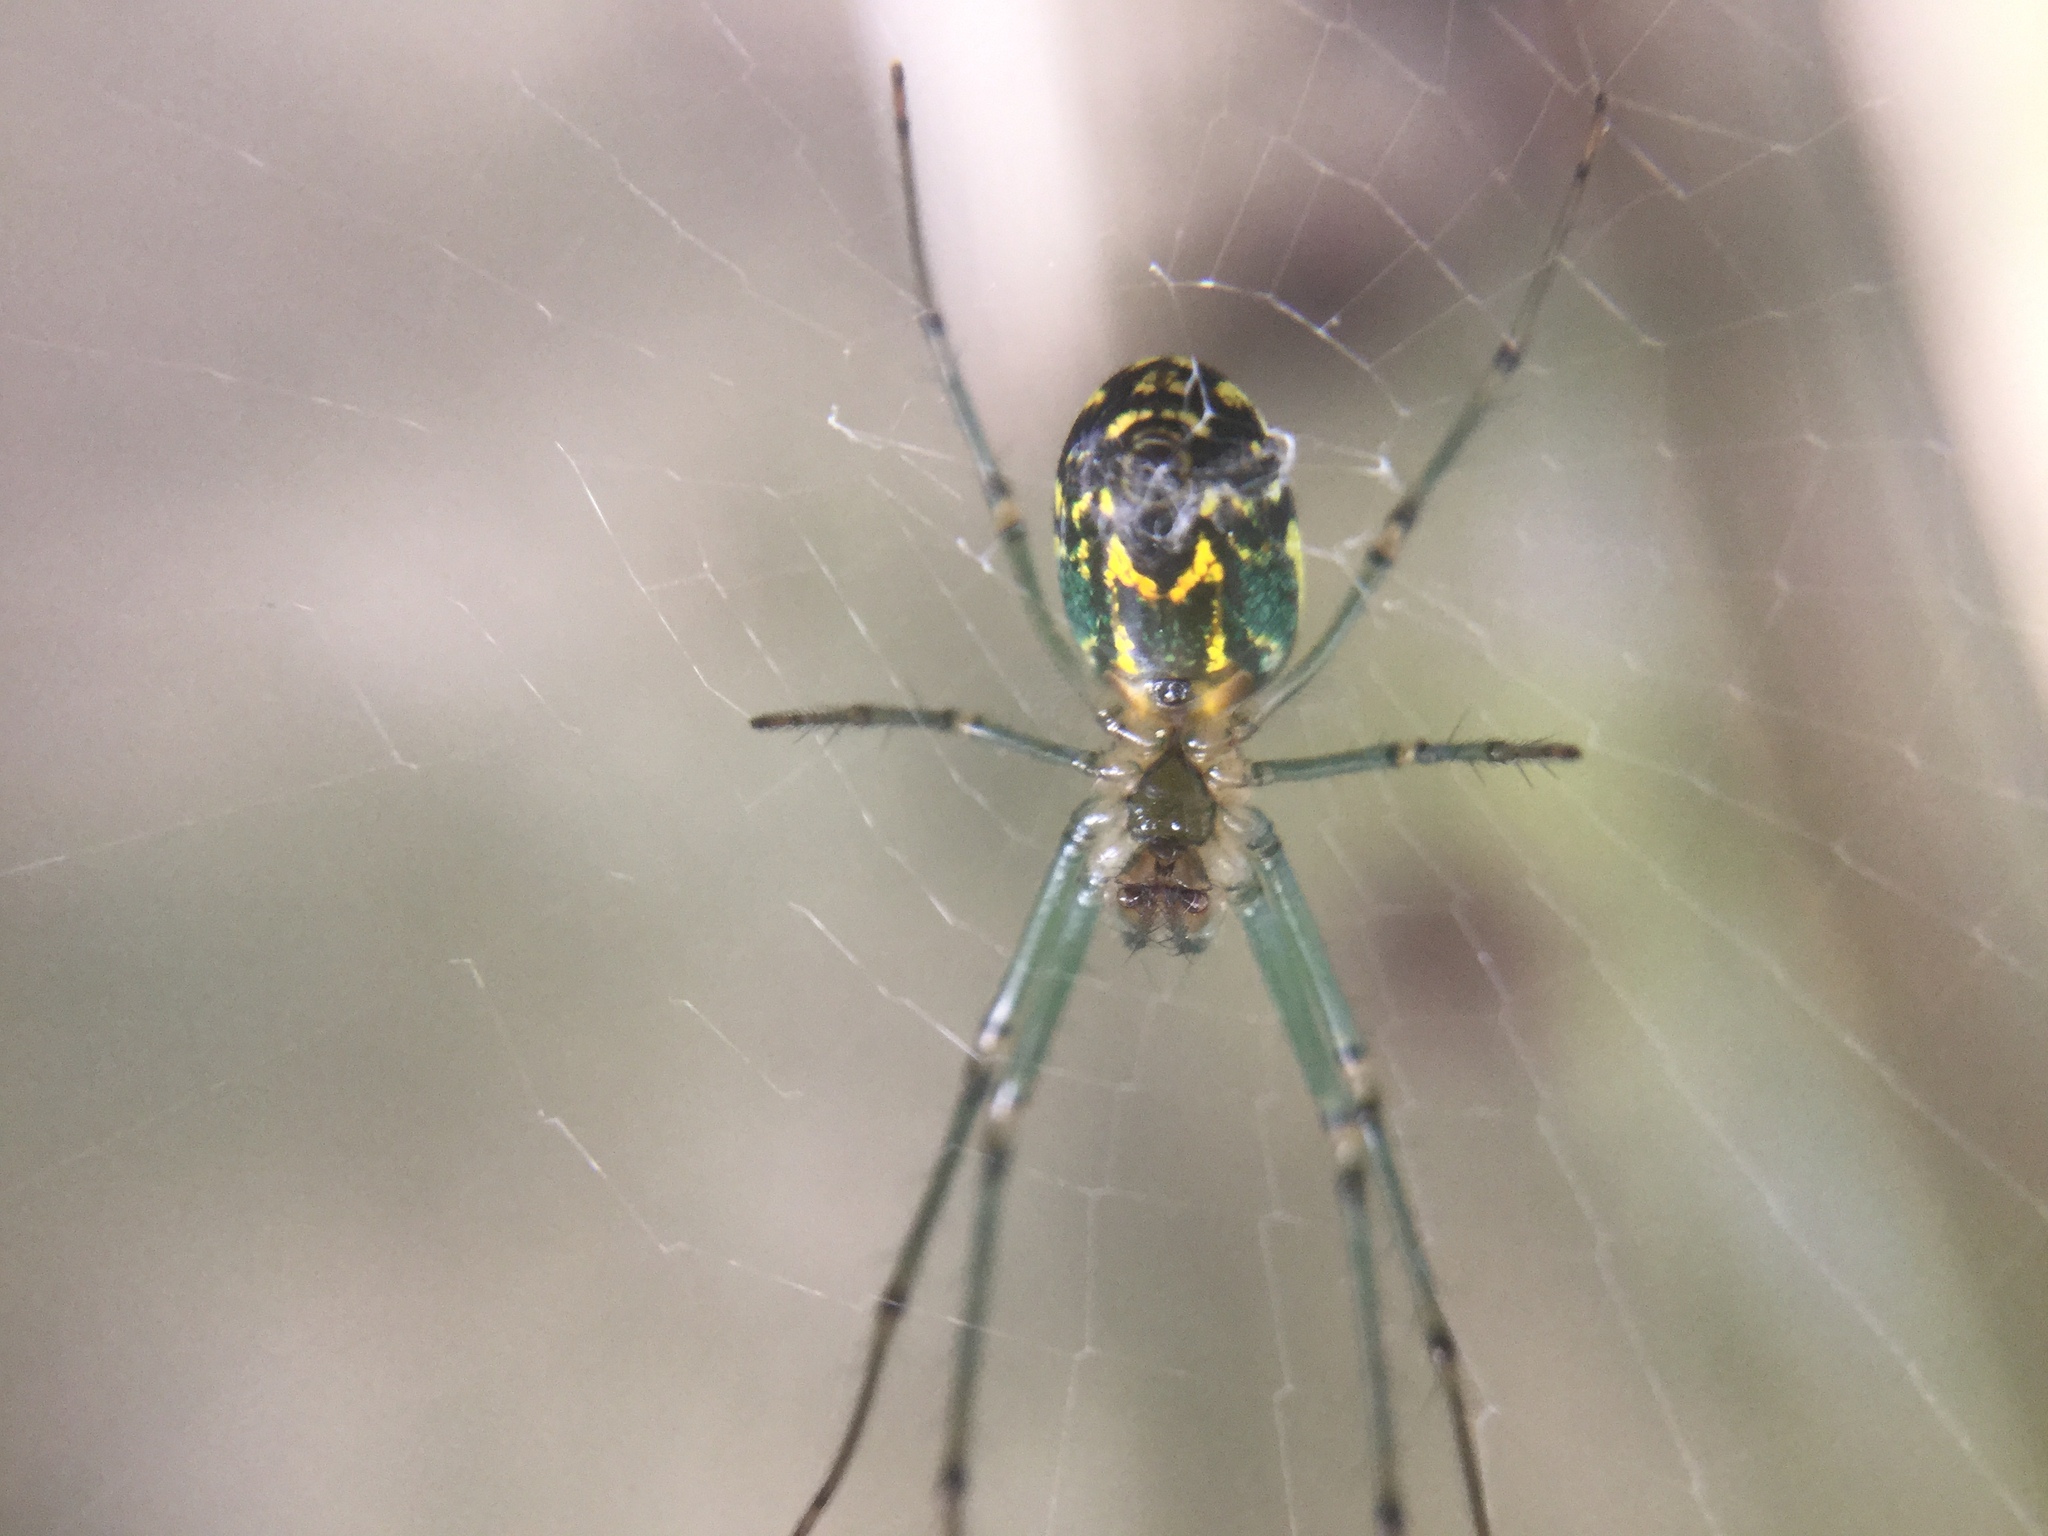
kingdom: Animalia
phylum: Arthropoda
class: Arachnida
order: Araneae
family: Tetragnathidae
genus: Leucauge
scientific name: Leucauge venusta
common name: Longjawed orb weavers
